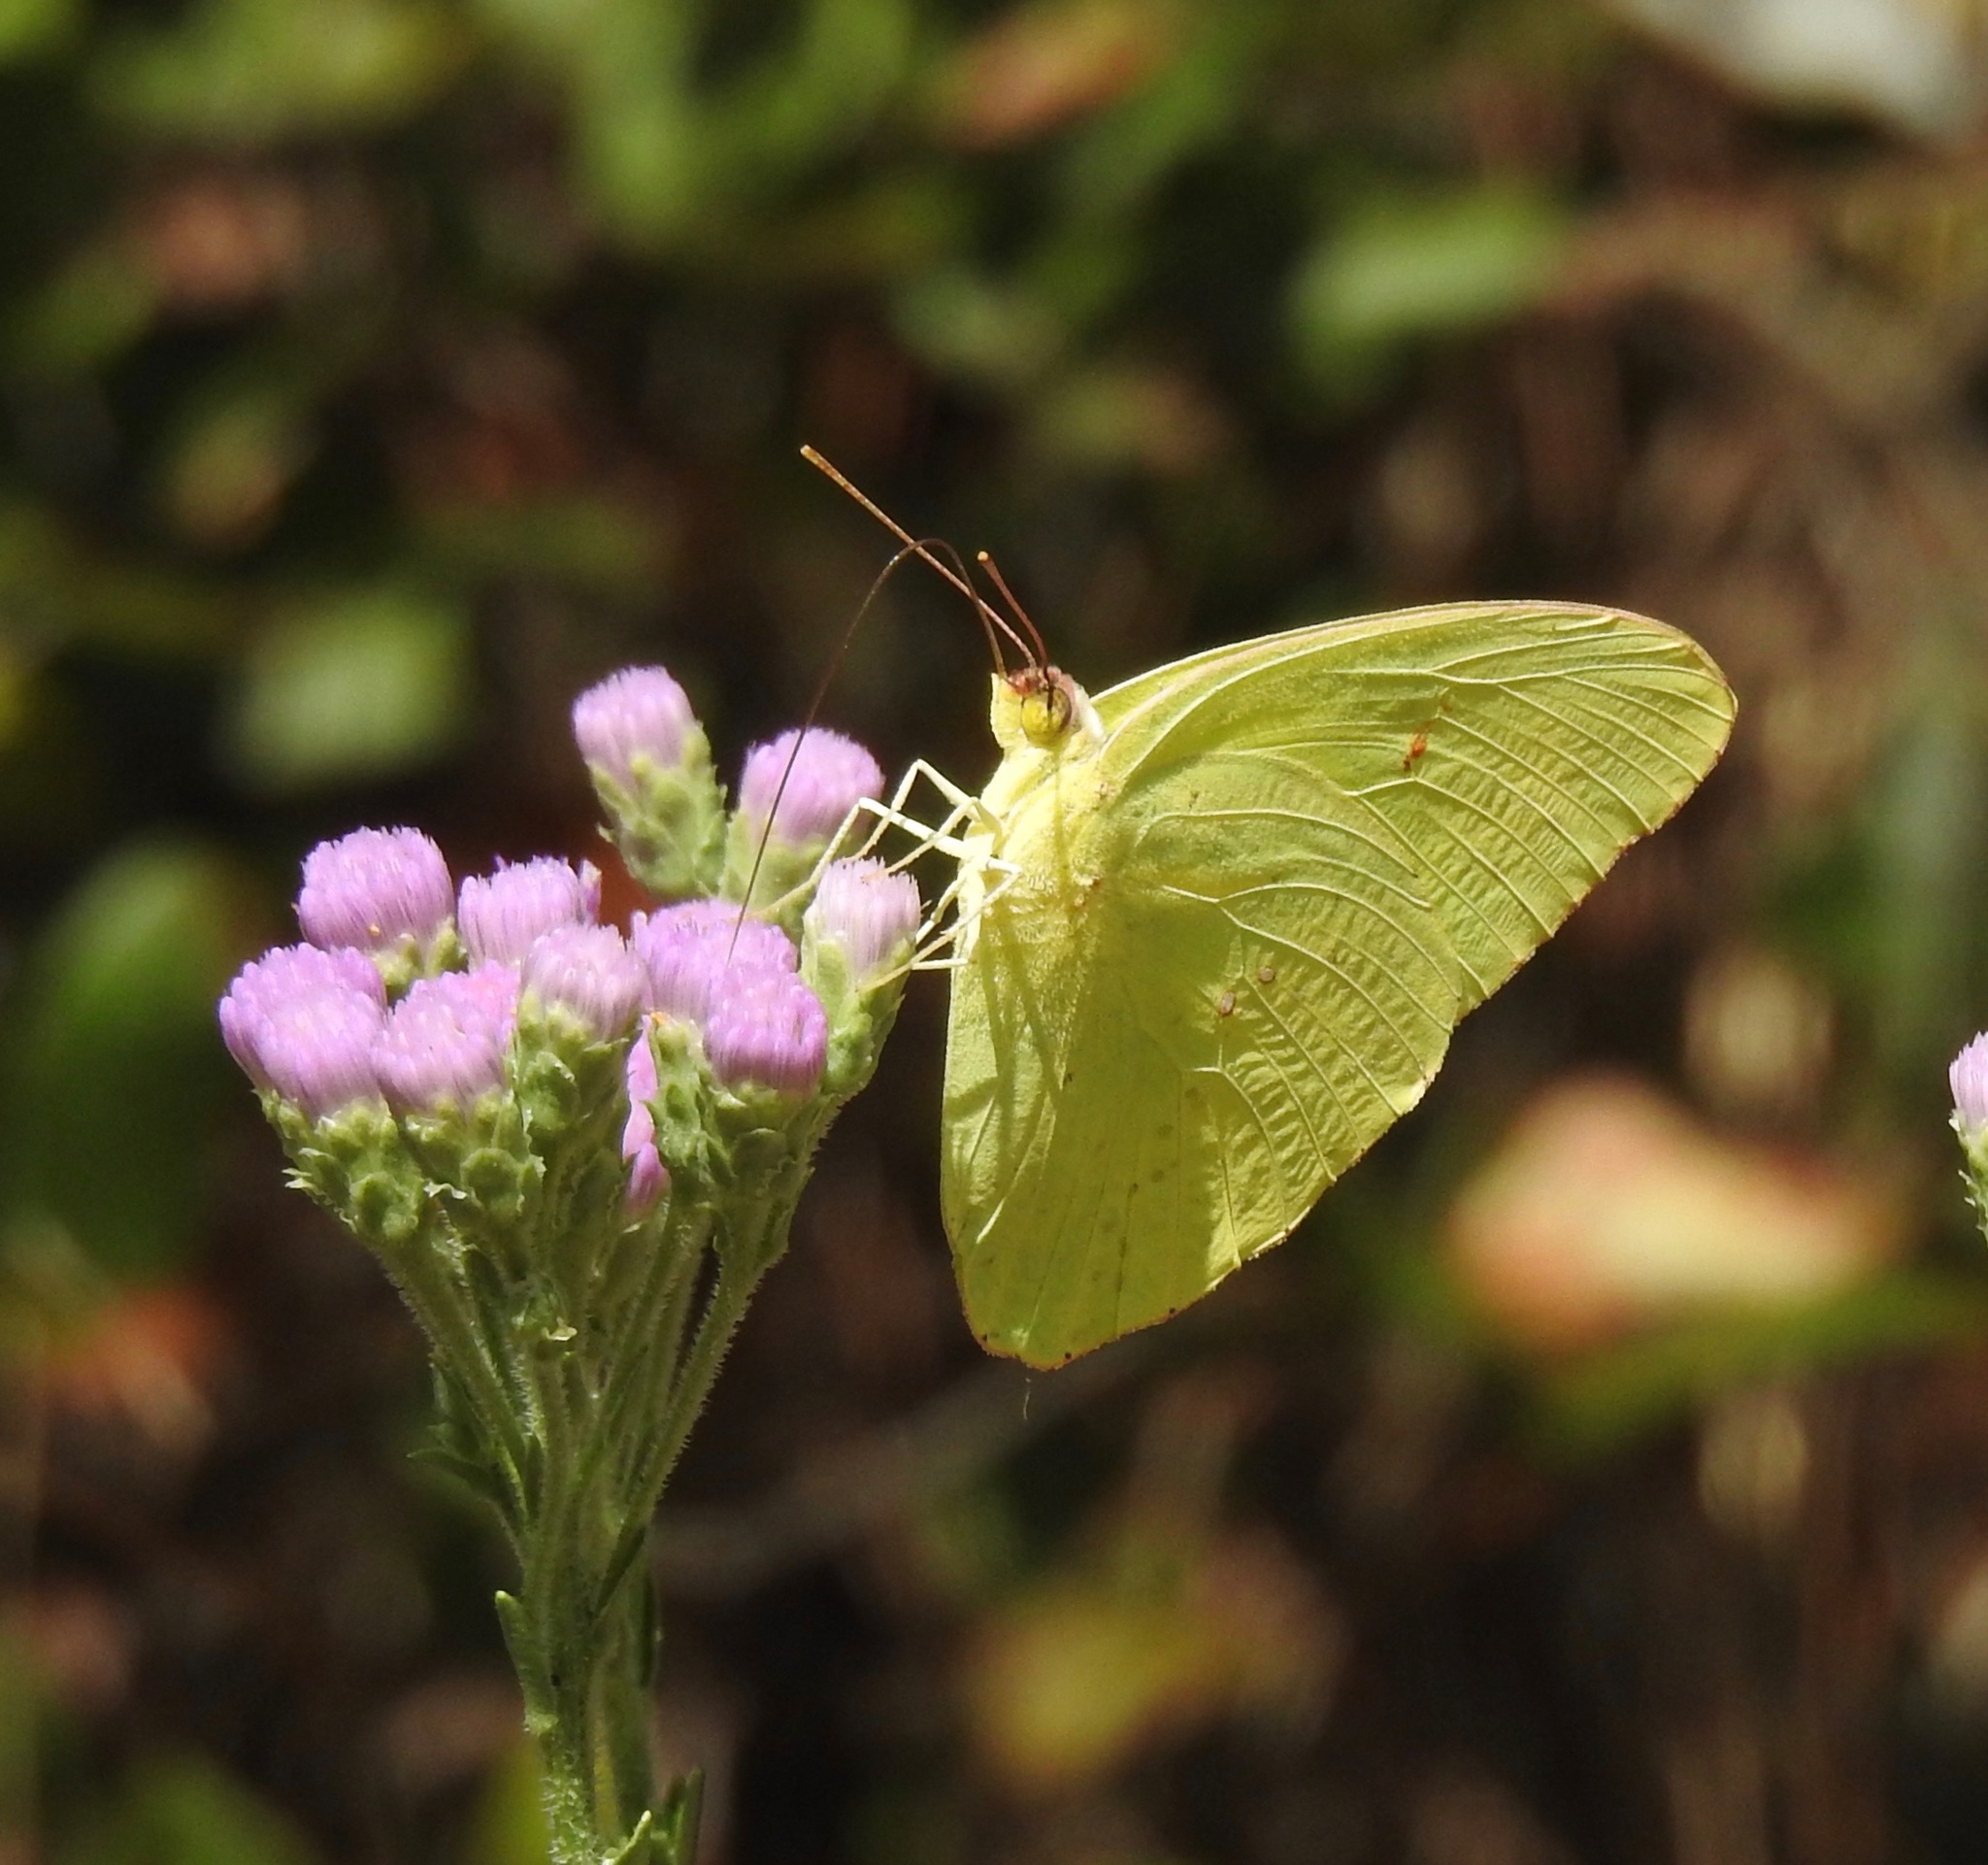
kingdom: Animalia
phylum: Arthropoda
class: Insecta
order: Lepidoptera
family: Pieridae
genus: Phoebis
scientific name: Phoebis sennae
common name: Cloudless sulphur
